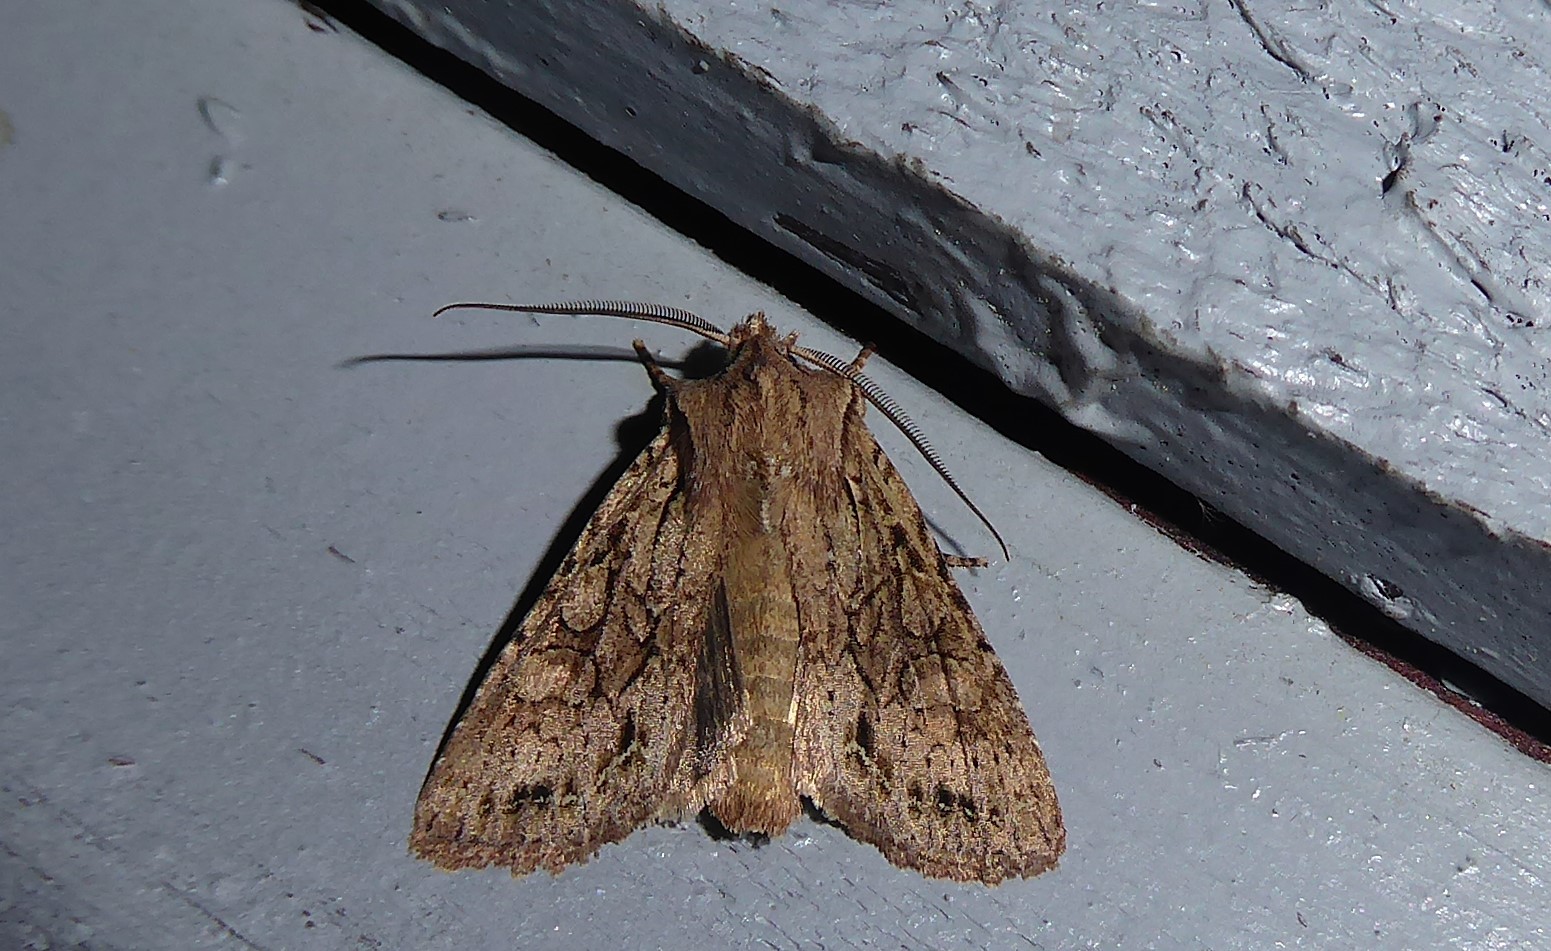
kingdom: Animalia
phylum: Arthropoda
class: Insecta
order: Lepidoptera
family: Noctuidae
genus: Ichneutica
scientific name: Ichneutica
